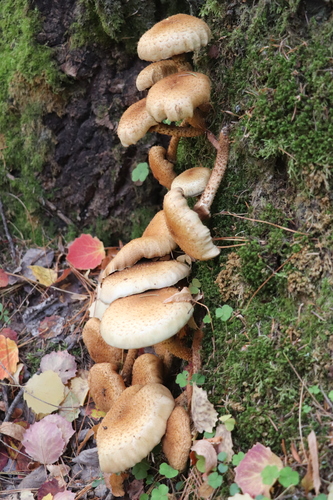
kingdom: Fungi
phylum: Basidiomycota
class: Agaricomycetes
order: Agaricales
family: Strophariaceae
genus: Pholiota
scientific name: Pholiota squarrosa
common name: Shaggy pholiota
